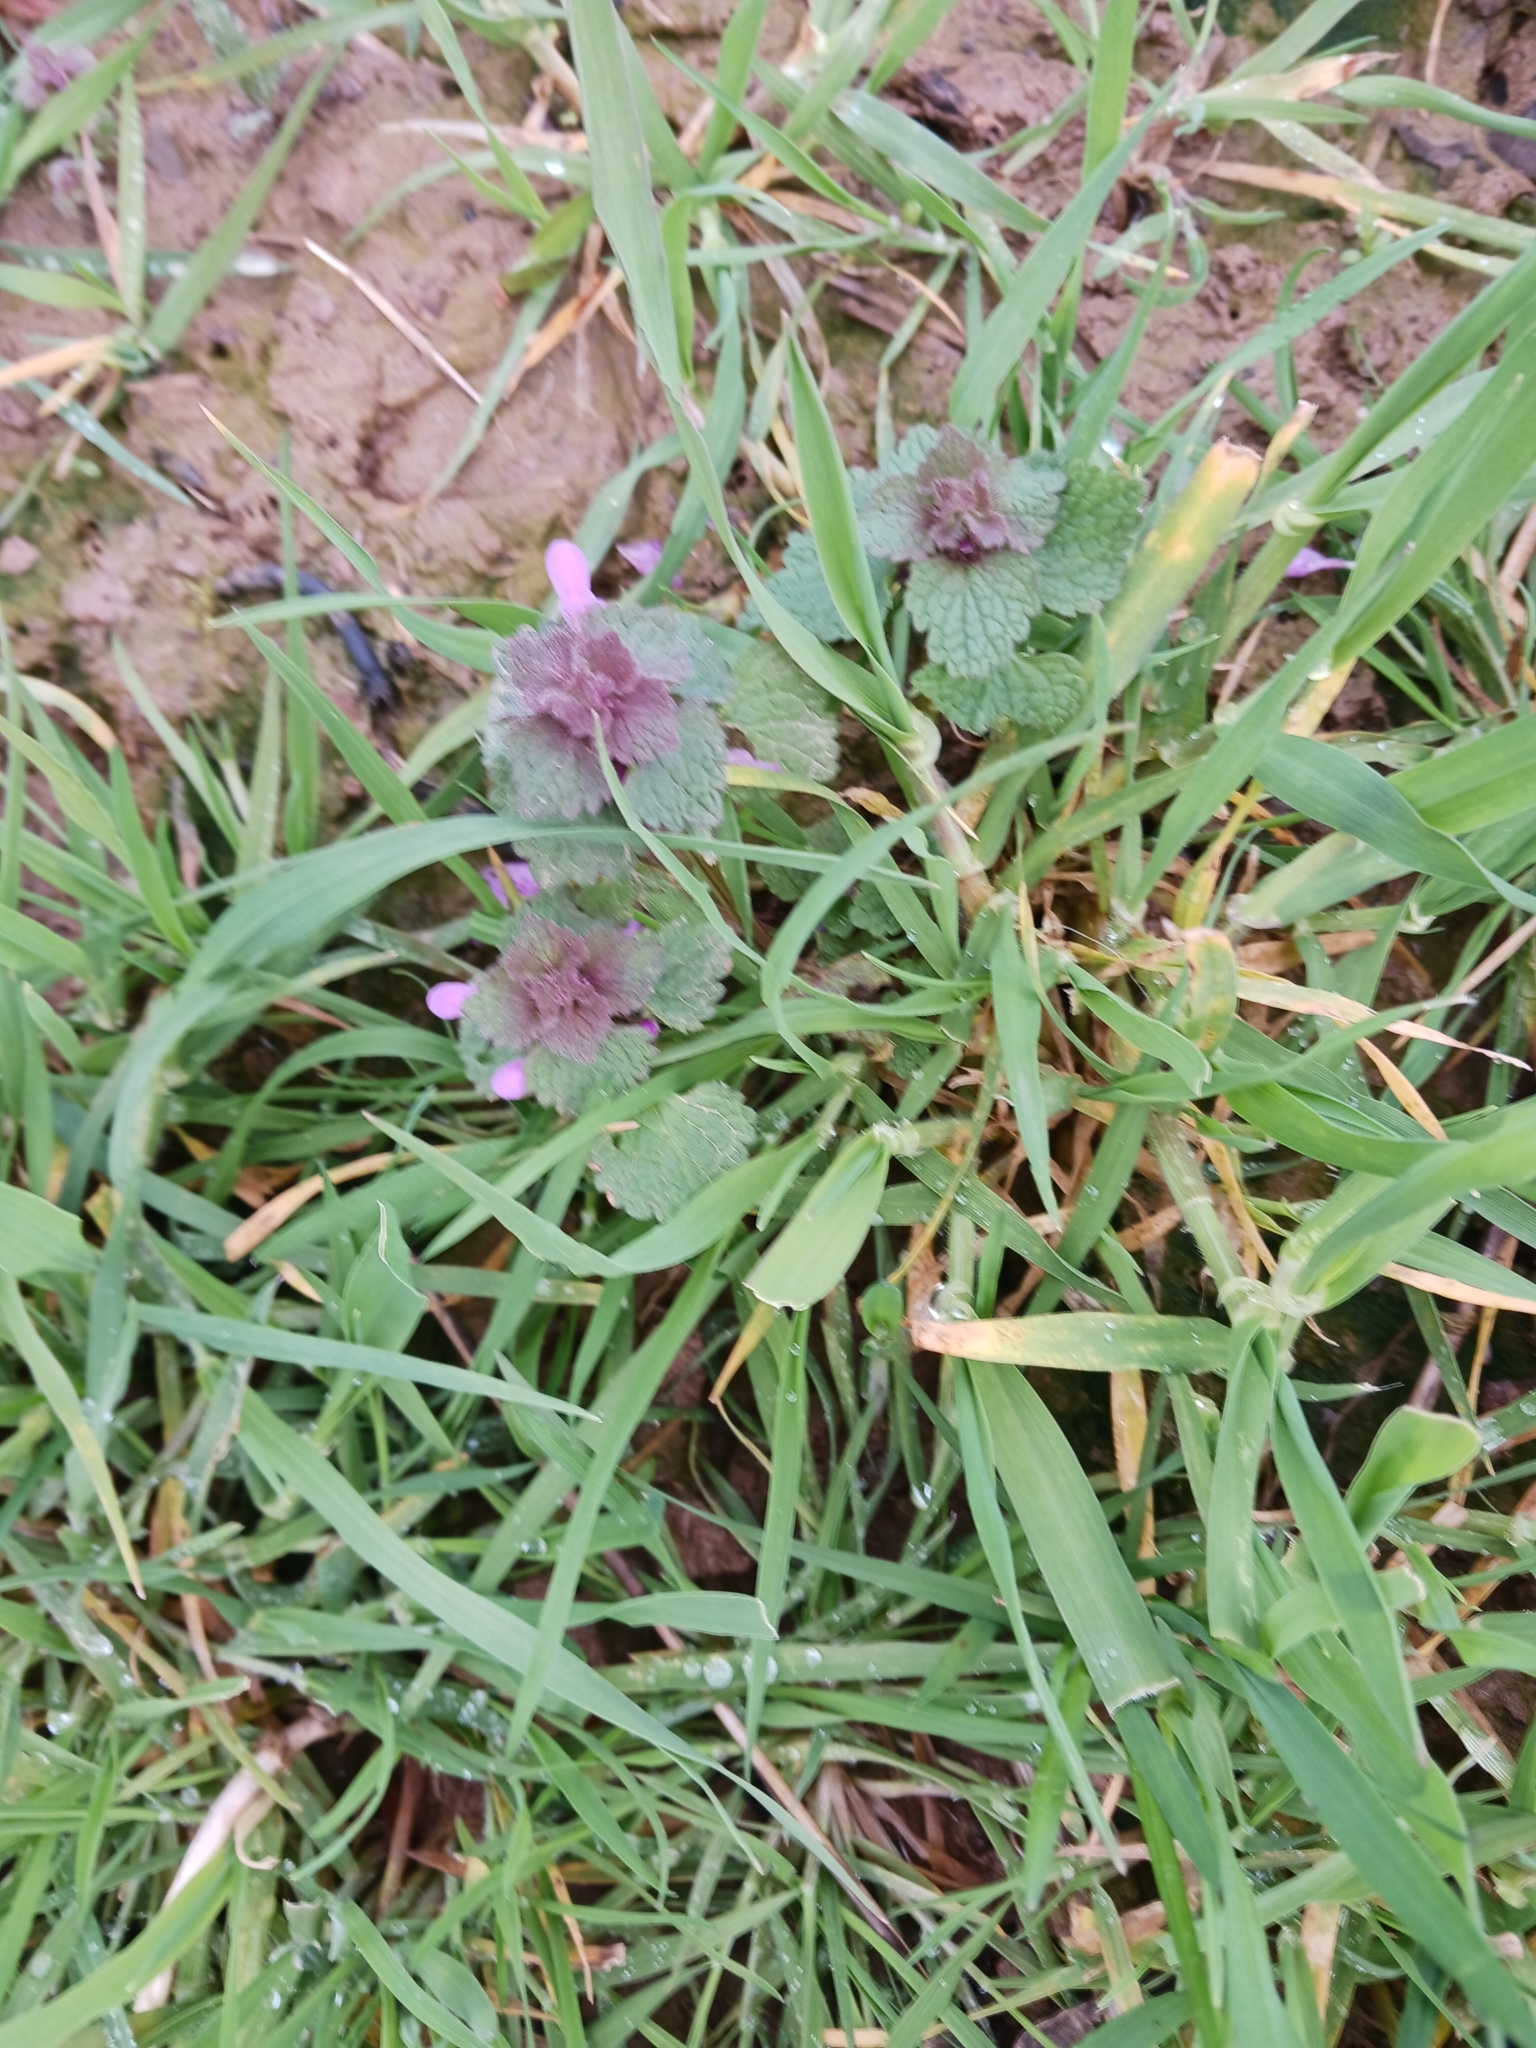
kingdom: Plantae
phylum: Tracheophyta
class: Magnoliopsida
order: Lamiales
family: Lamiaceae
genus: Lamium
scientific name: Lamium purpureum
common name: Red dead-nettle
